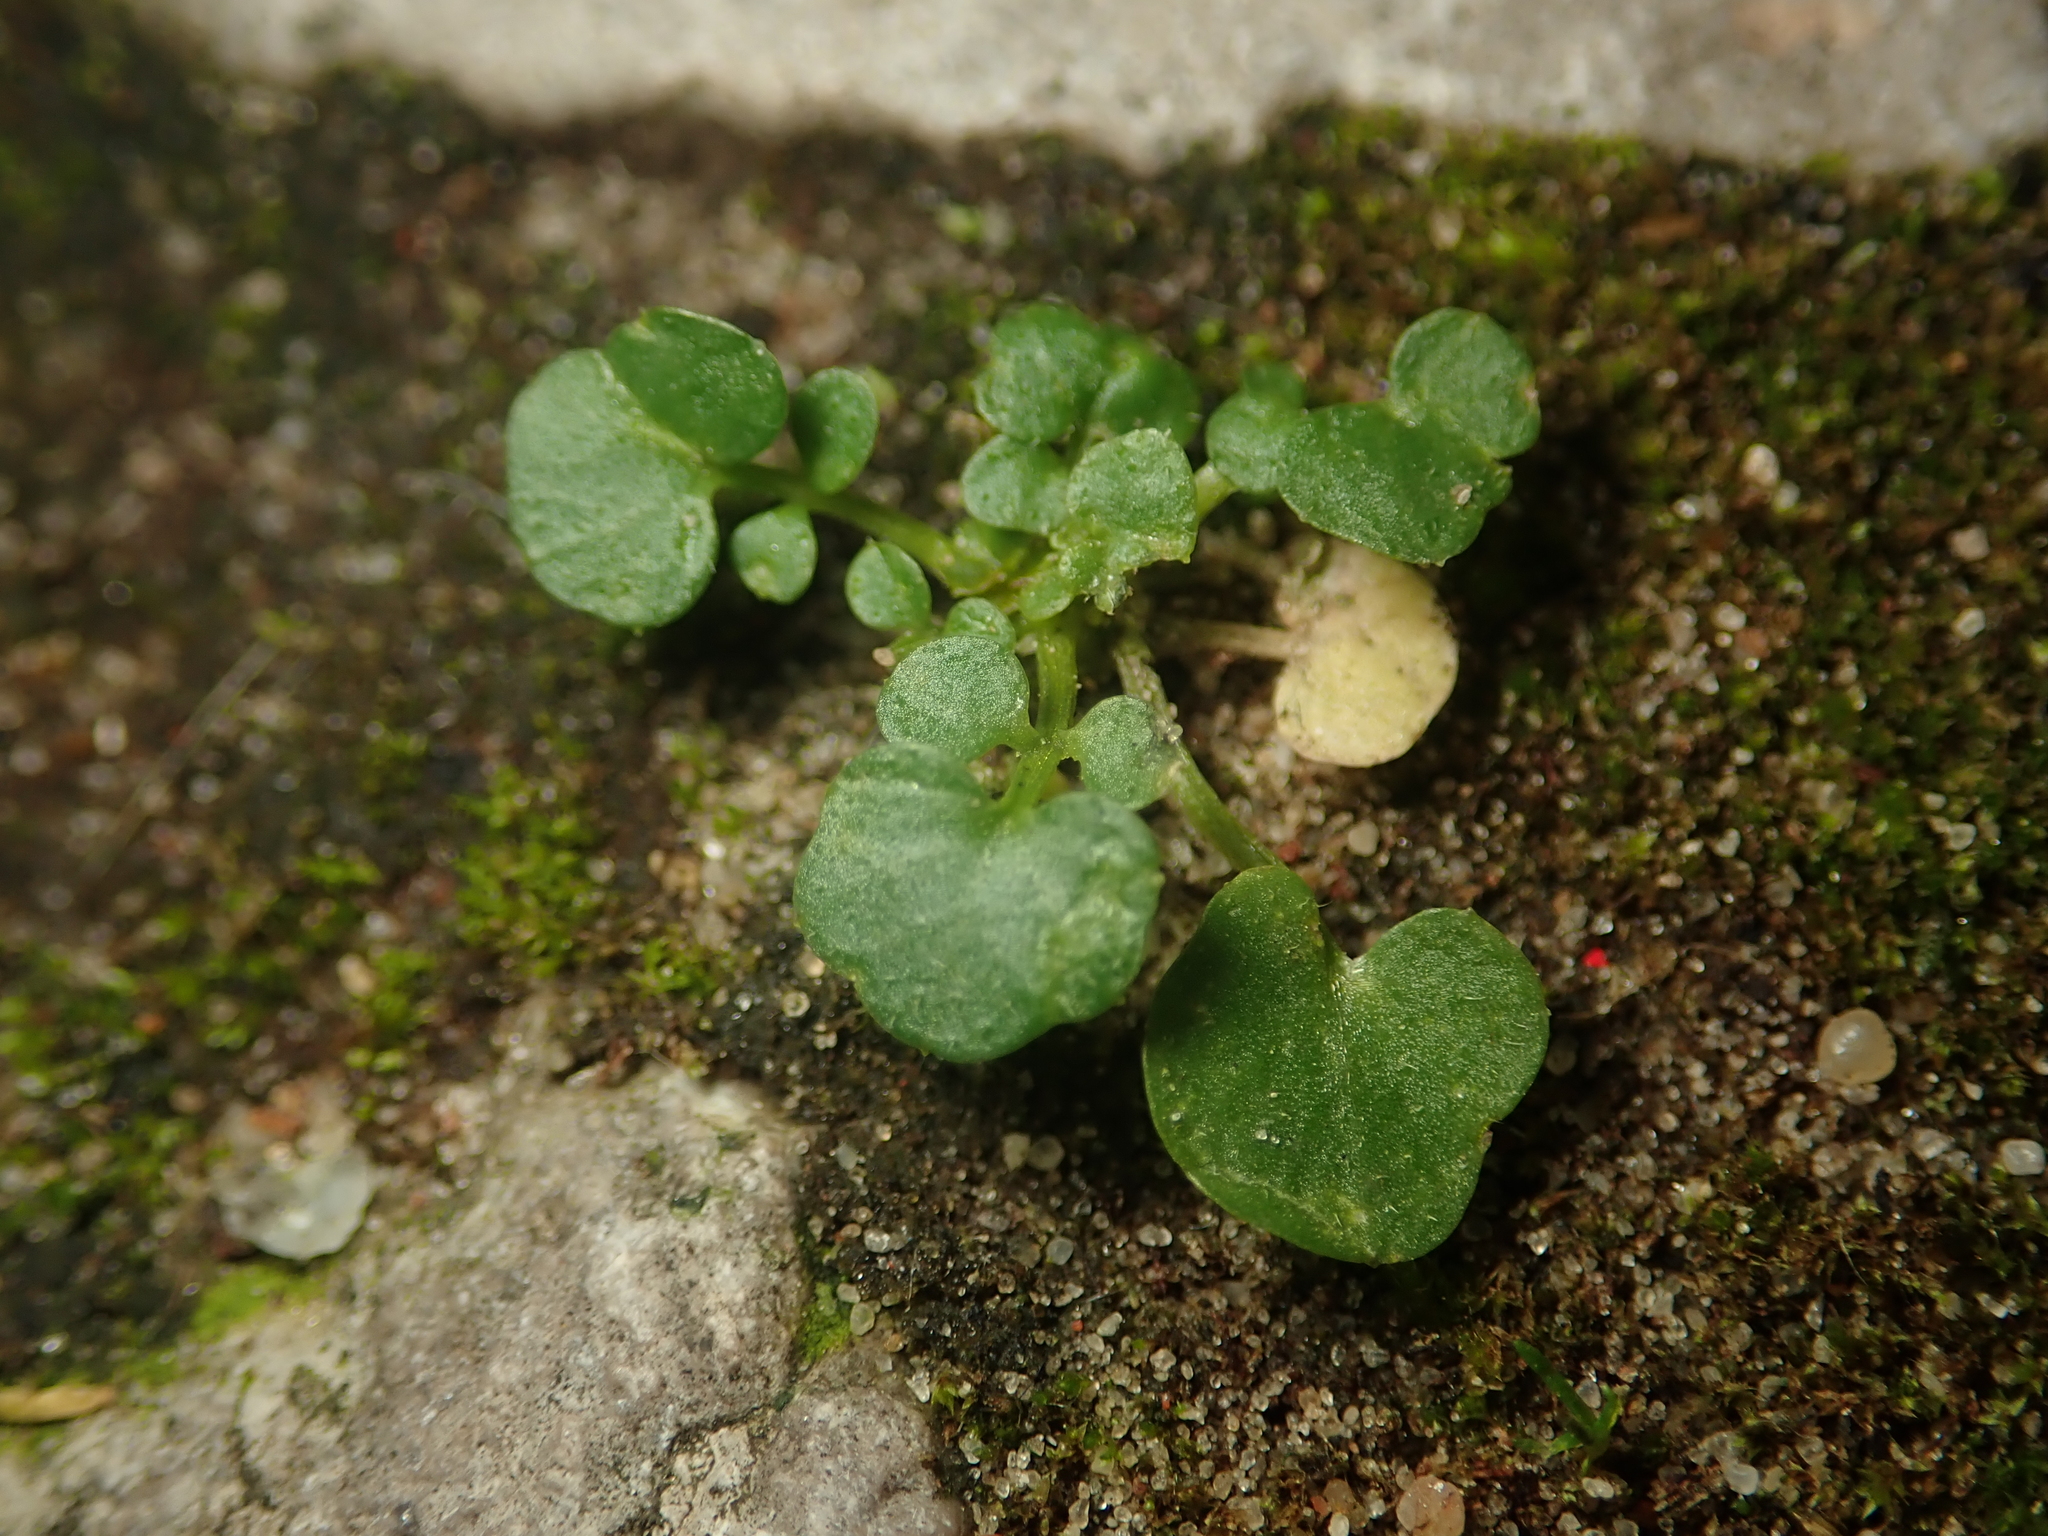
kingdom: Plantae
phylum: Tracheophyta
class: Magnoliopsida
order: Brassicales
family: Brassicaceae
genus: Cardamine
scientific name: Cardamine hirsuta
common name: Hairy bittercress
